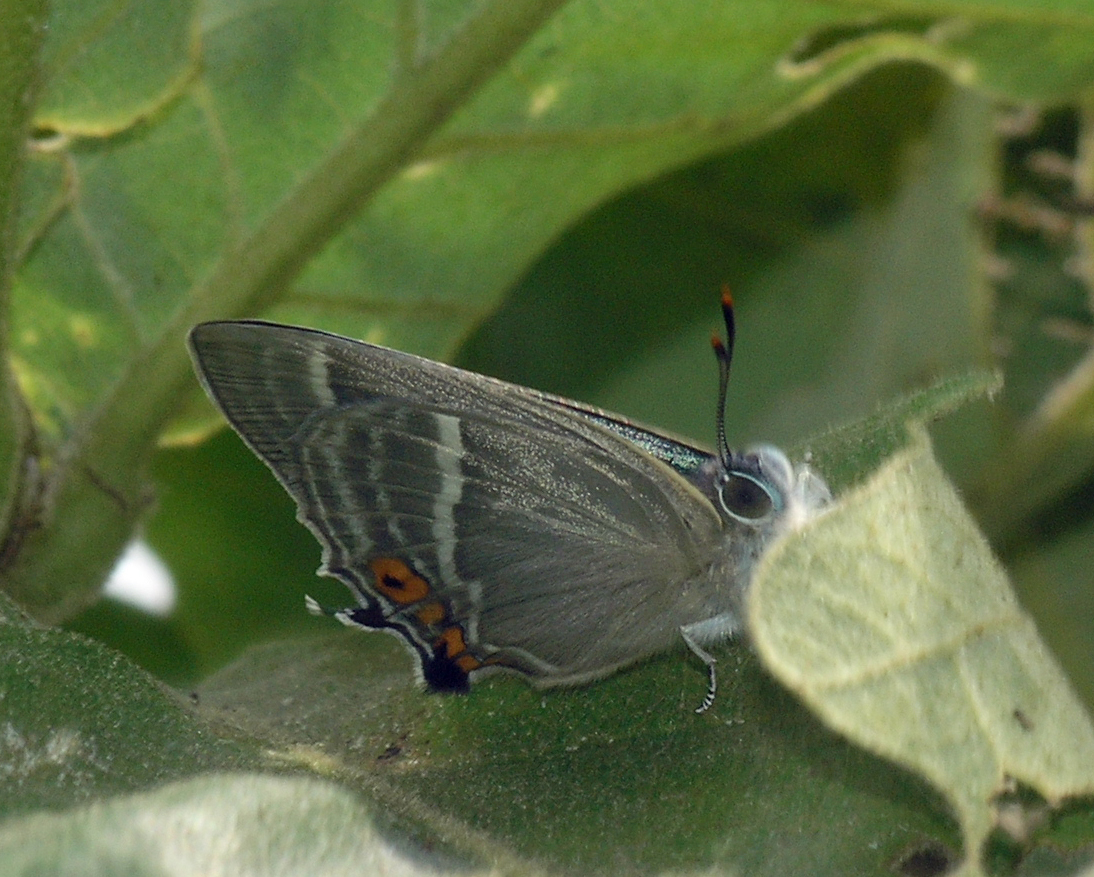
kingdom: Animalia
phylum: Arthropoda
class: Insecta
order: Lepidoptera
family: Lycaenidae
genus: Favonius
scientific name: Favonius ultramarina
